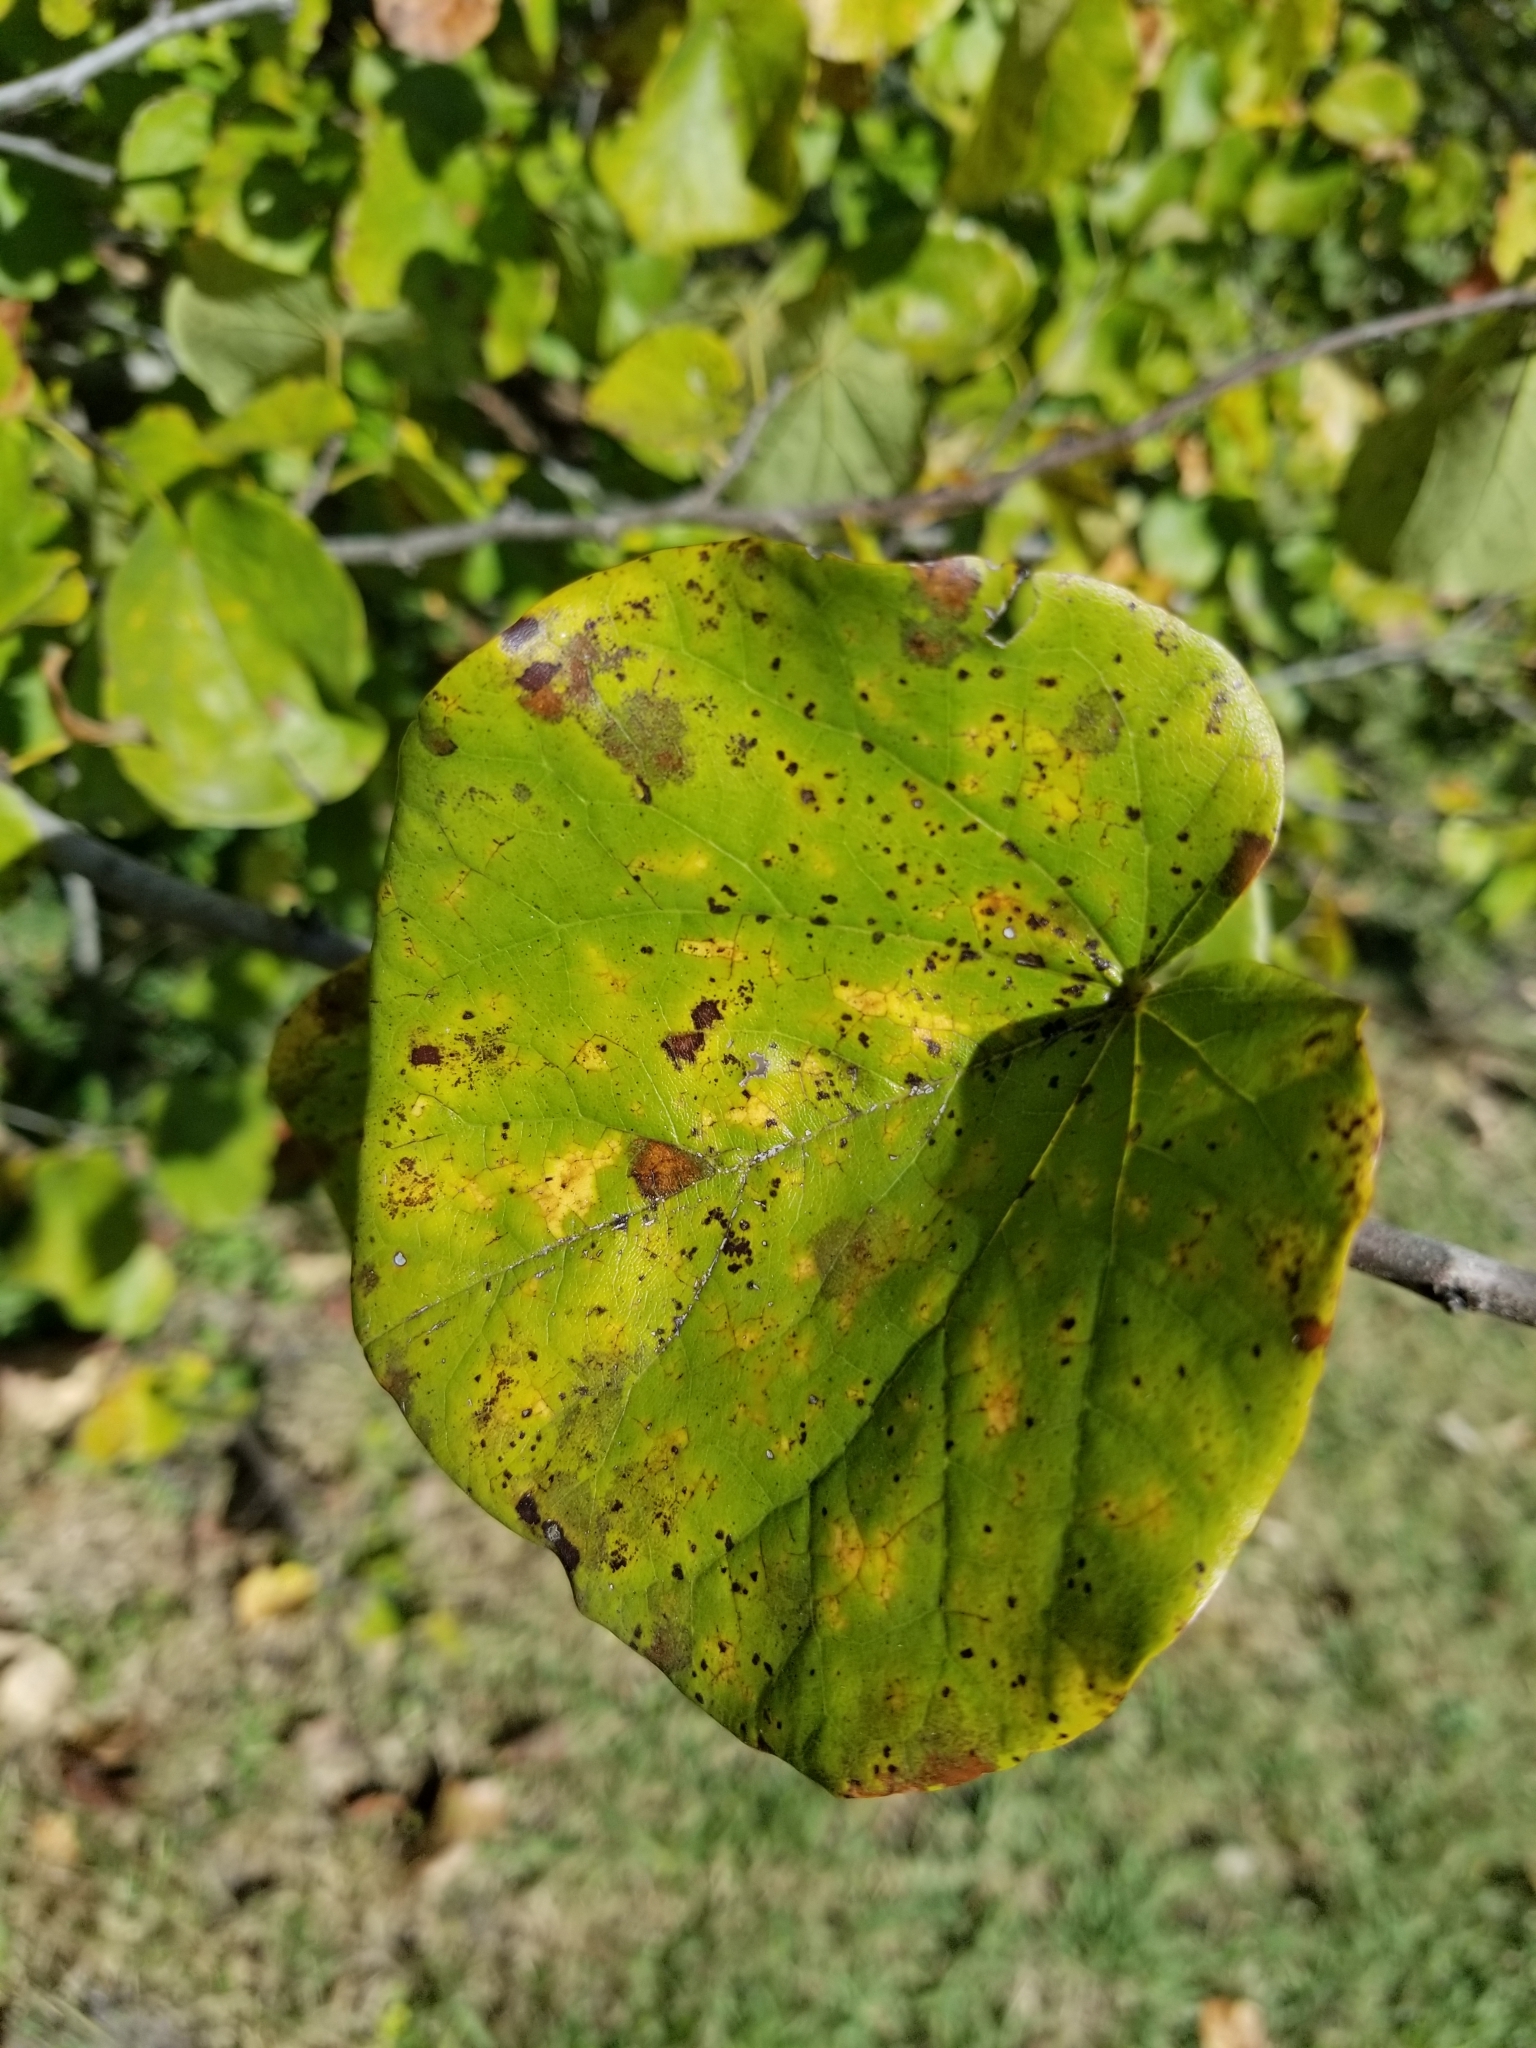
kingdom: Plantae
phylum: Tracheophyta
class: Magnoliopsida
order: Fabales
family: Fabaceae
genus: Cercis
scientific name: Cercis canadensis
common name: Eastern redbud
